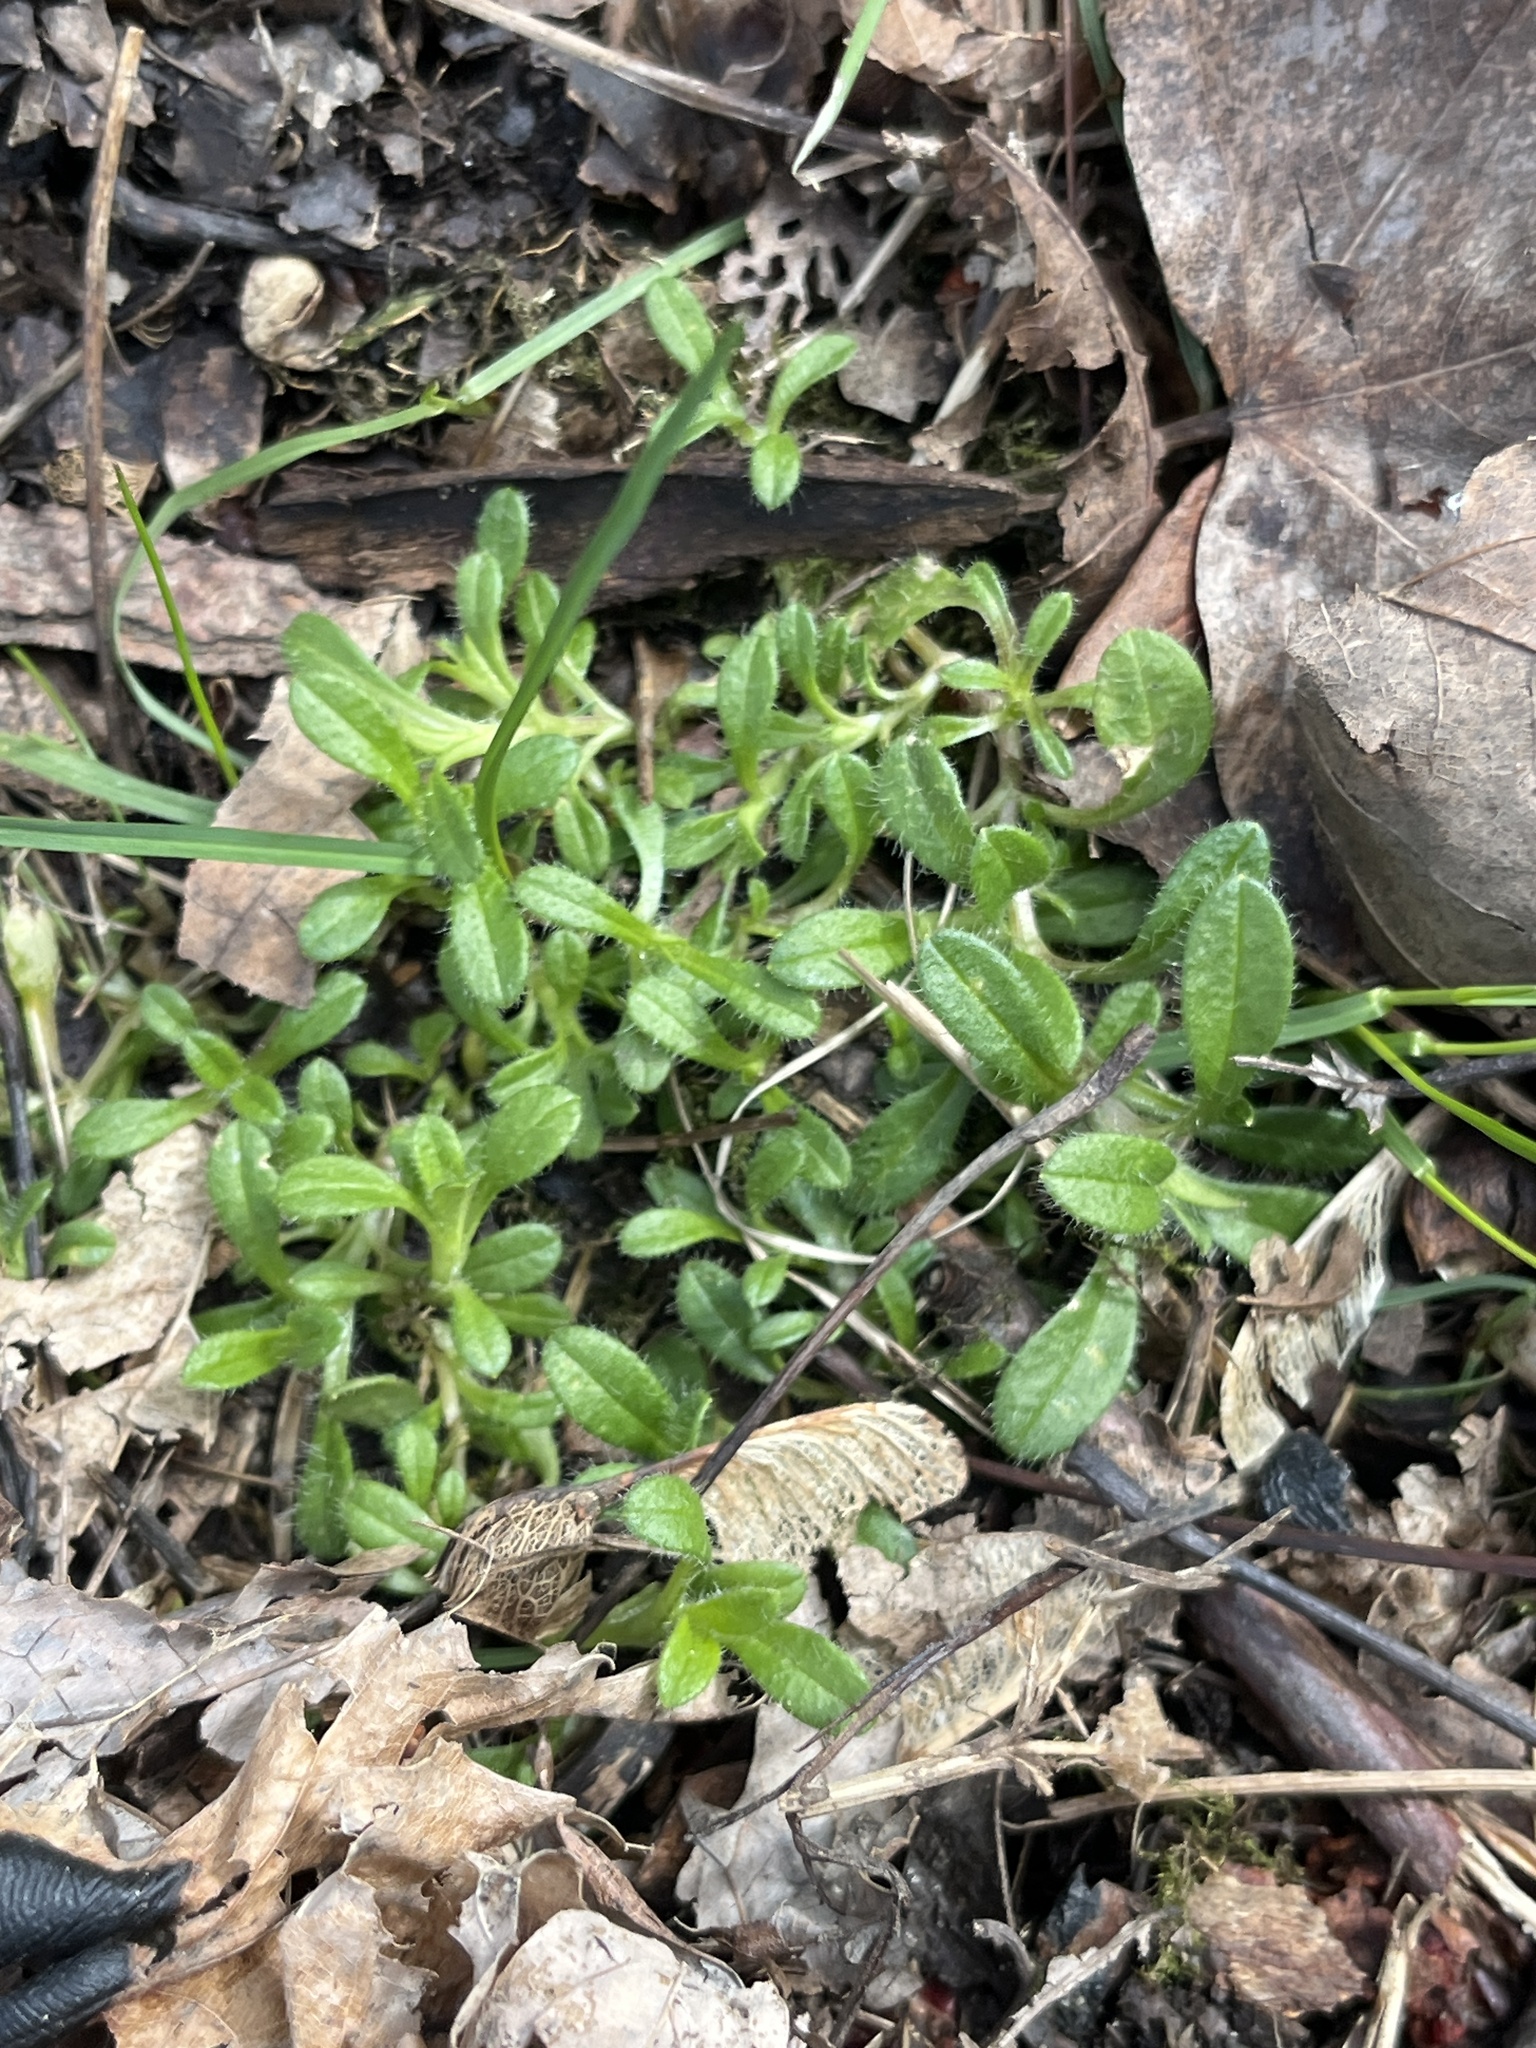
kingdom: Plantae
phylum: Tracheophyta
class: Magnoliopsida
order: Caryophyllales
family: Caryophyllaceae
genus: Cerastium
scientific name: Cerastium fontanum
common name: Common mouse-ear
